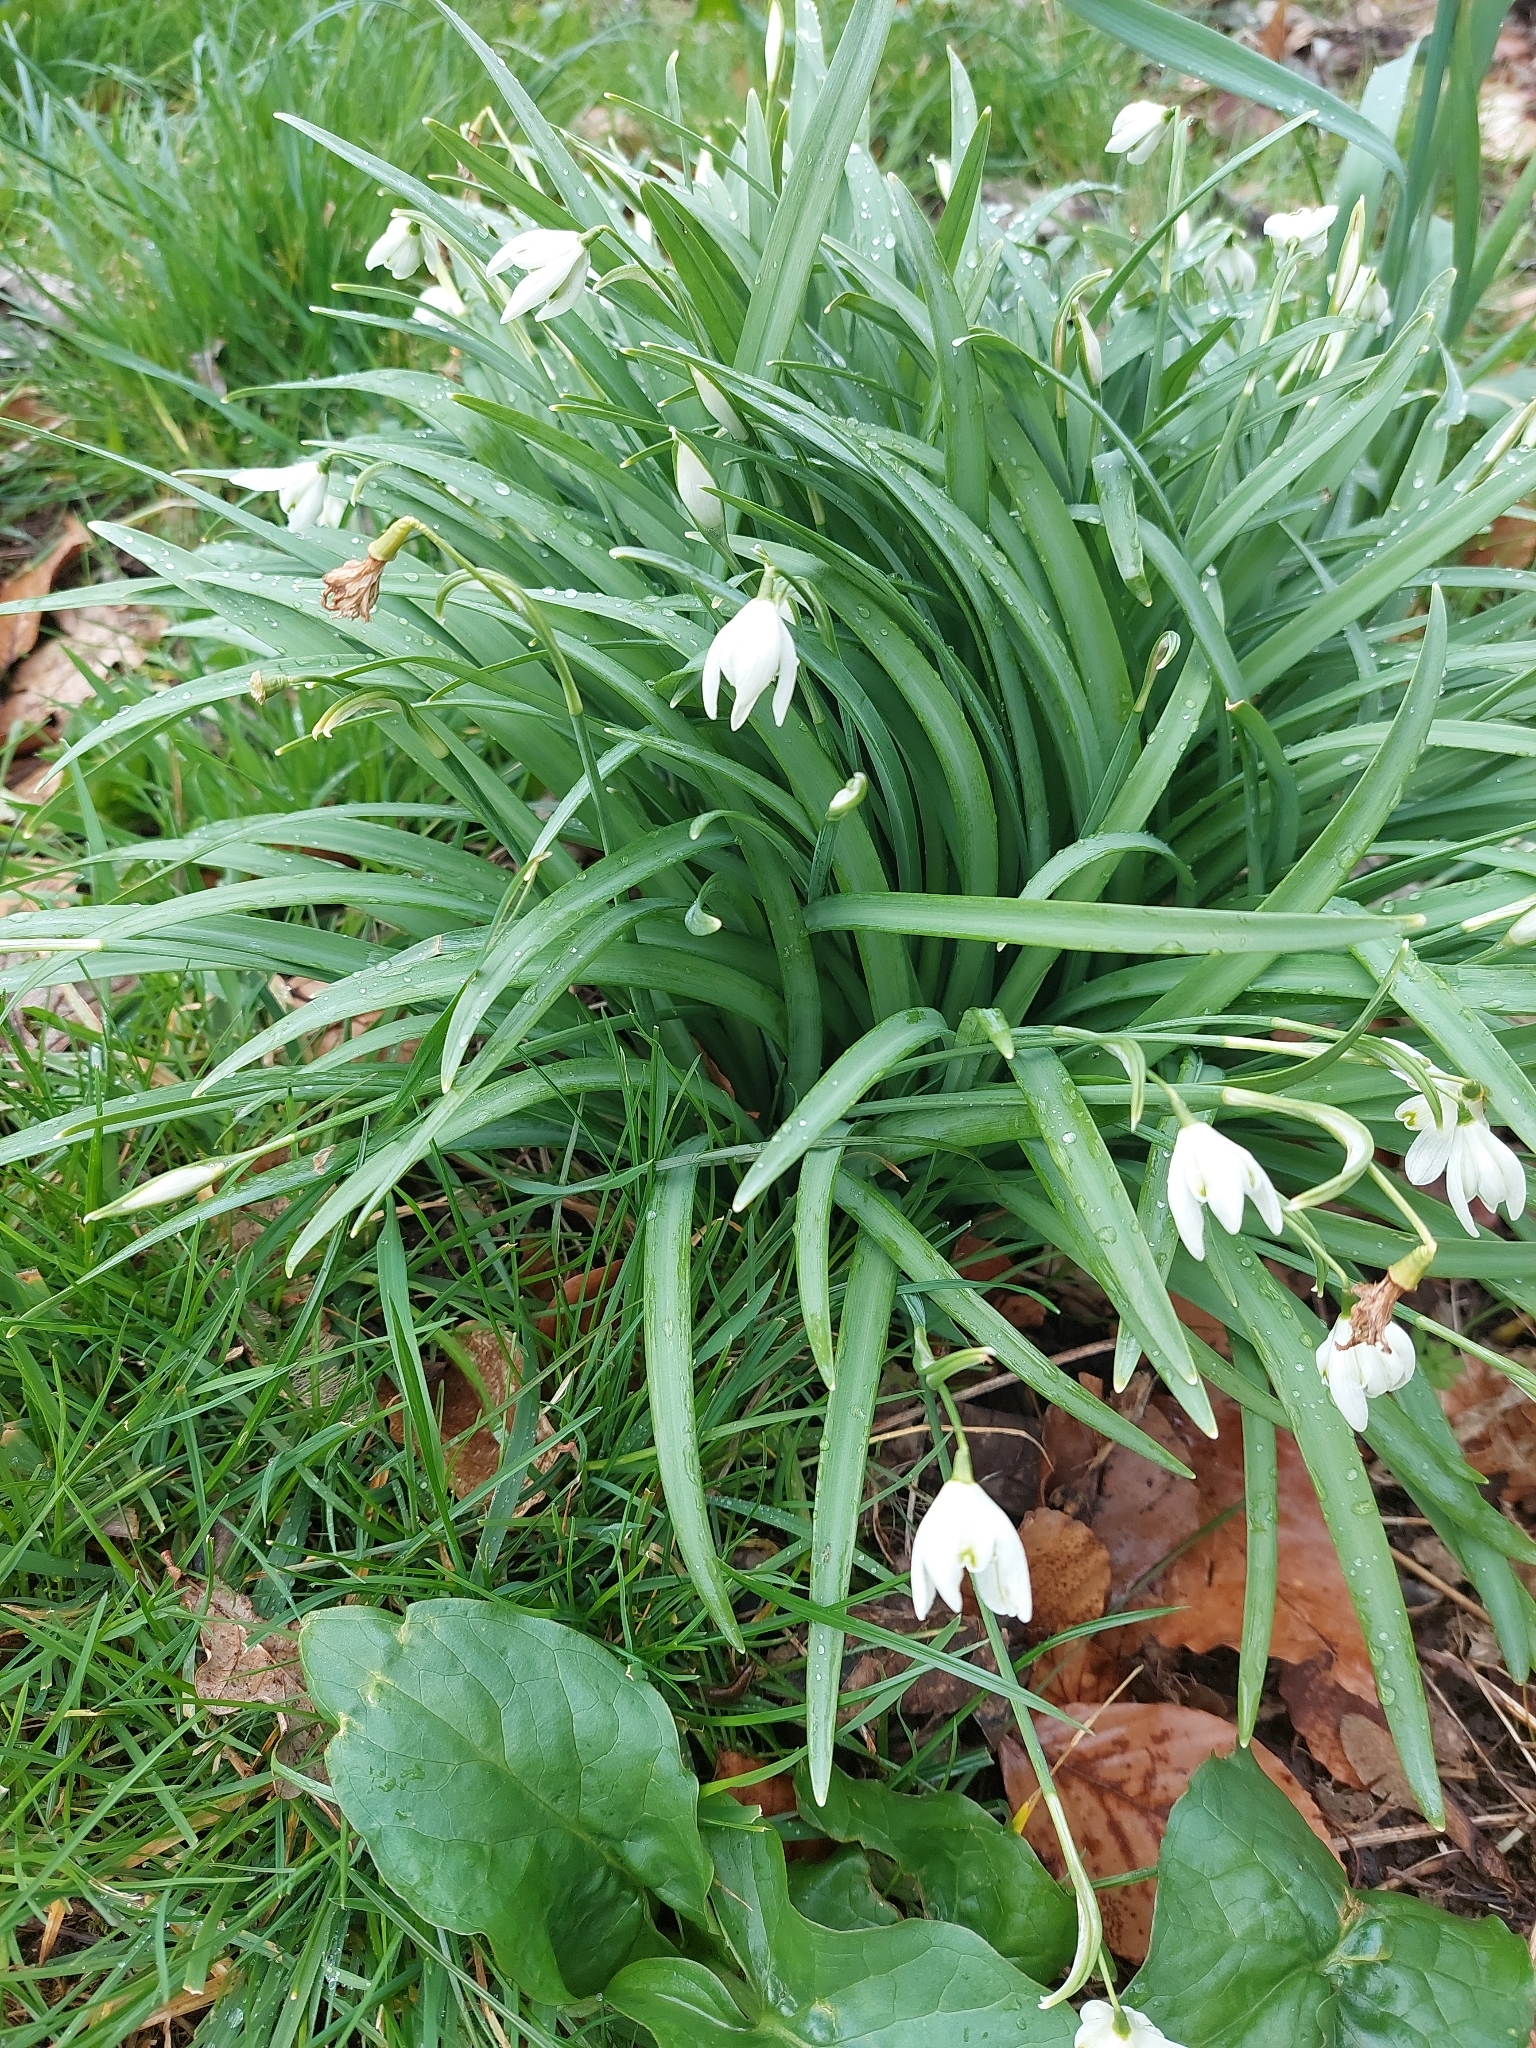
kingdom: Plantae
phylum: Tracheophyta
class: Liliopsida
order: Asparagales
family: Amaryllidaceae
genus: Galanthus
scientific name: Galanthus nivalis
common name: Snowdrop
